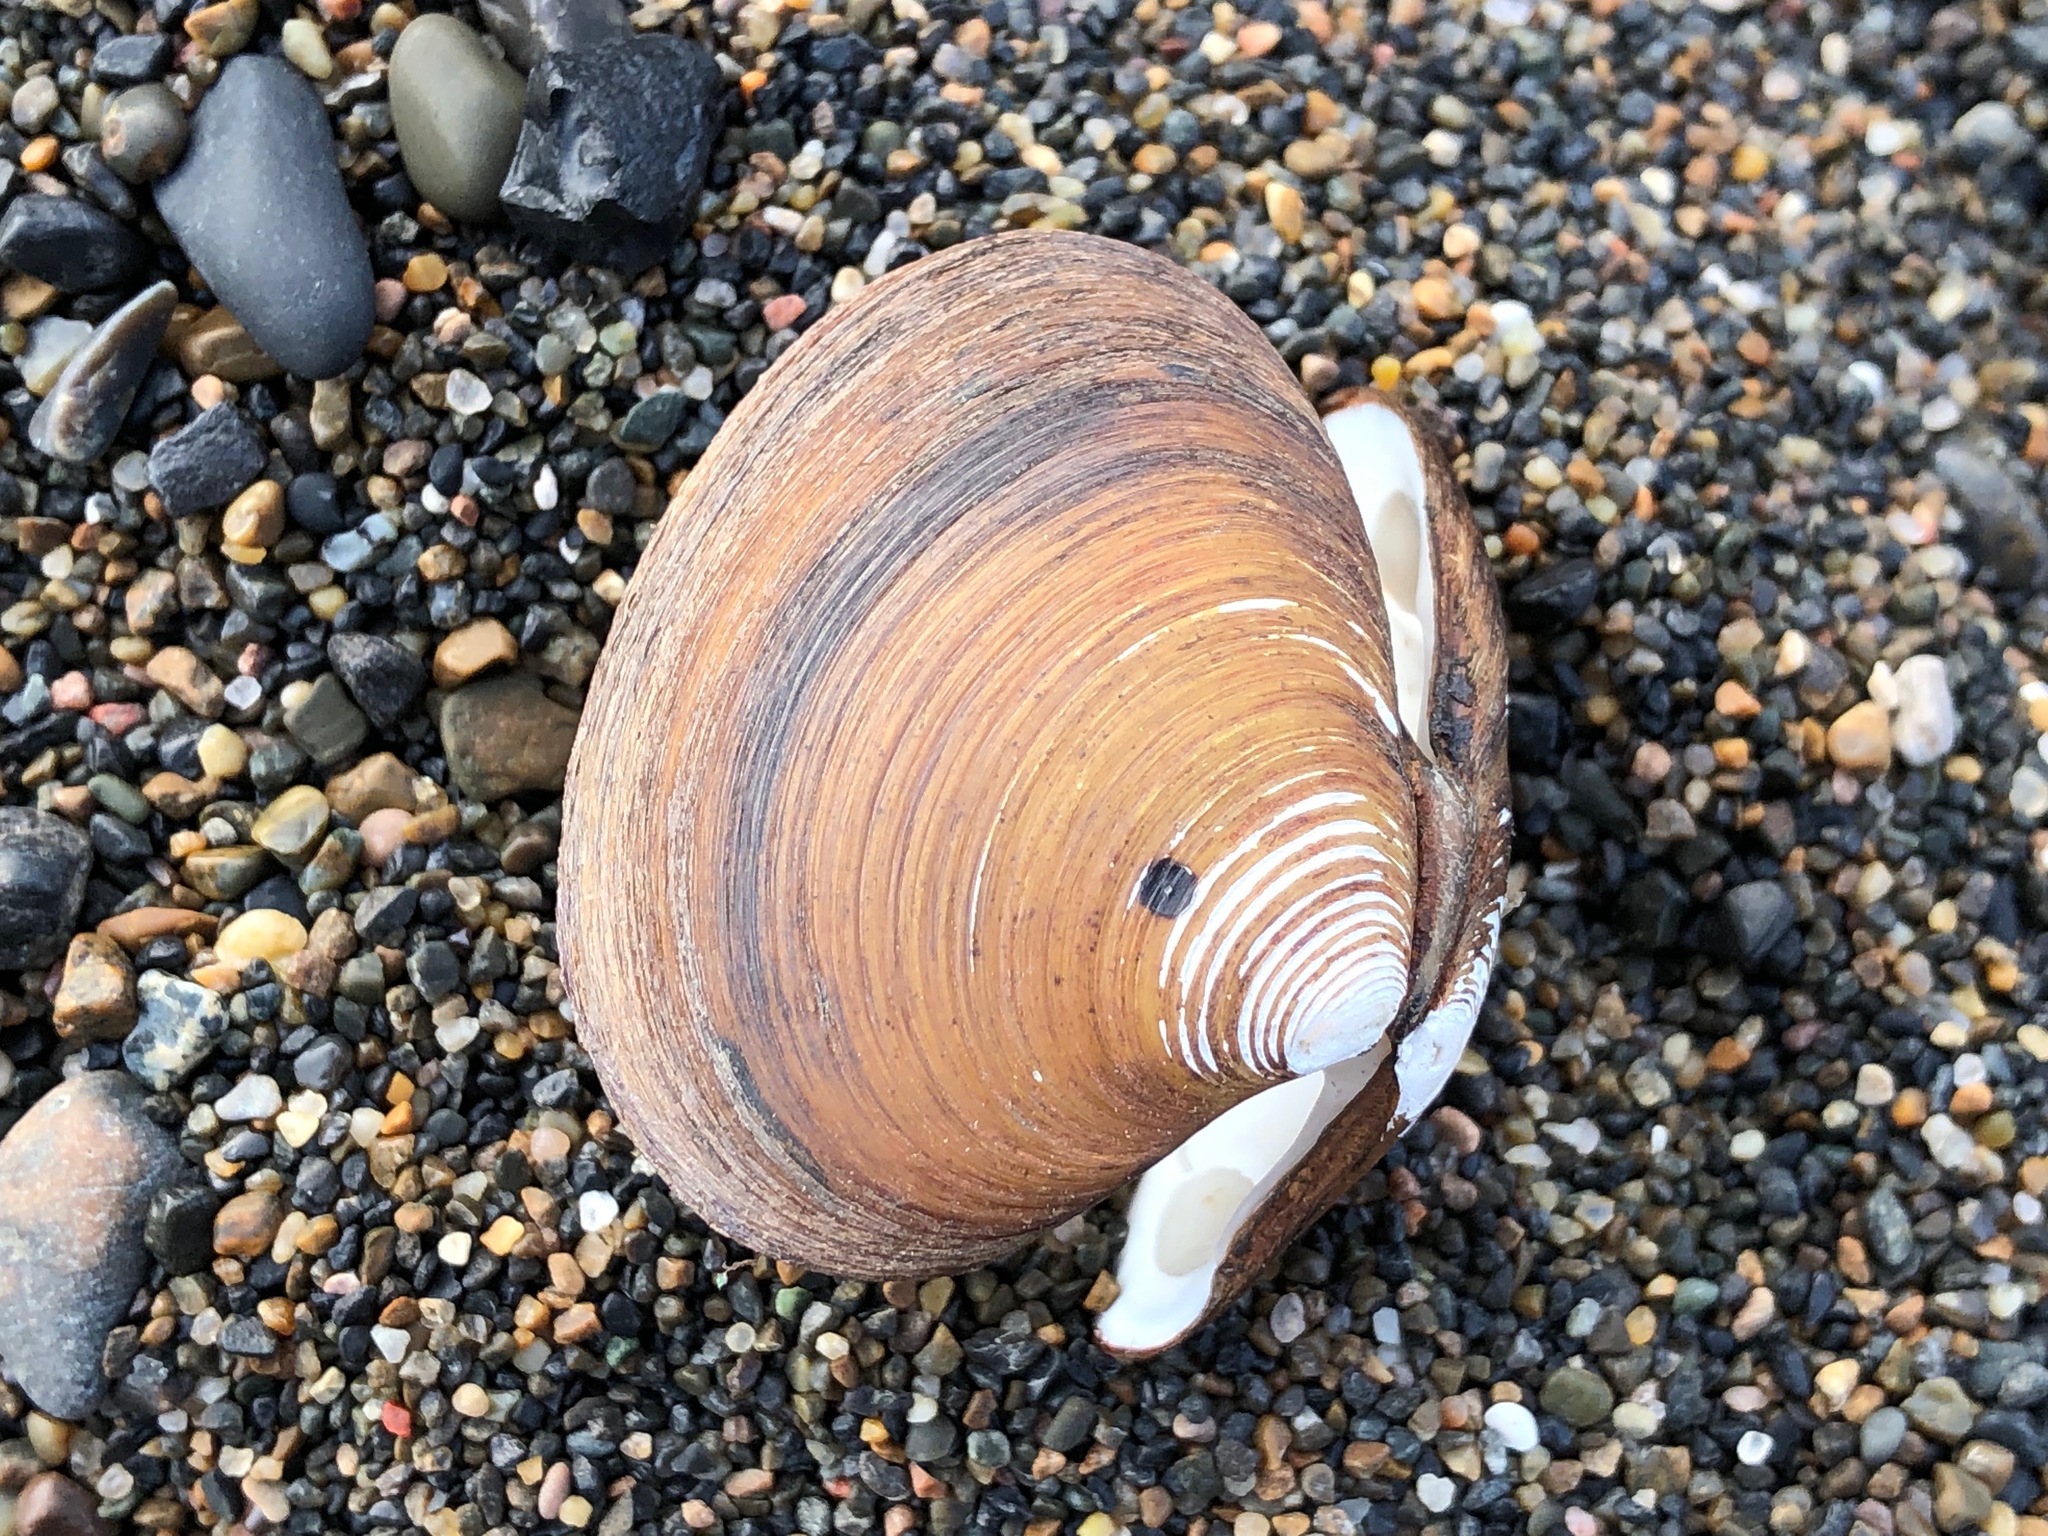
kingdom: Animalia
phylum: Mollusca
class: Bivalvia
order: Carditida
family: Astartidae
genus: Astarte
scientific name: Astarte borealis
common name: Boreal tridonta
